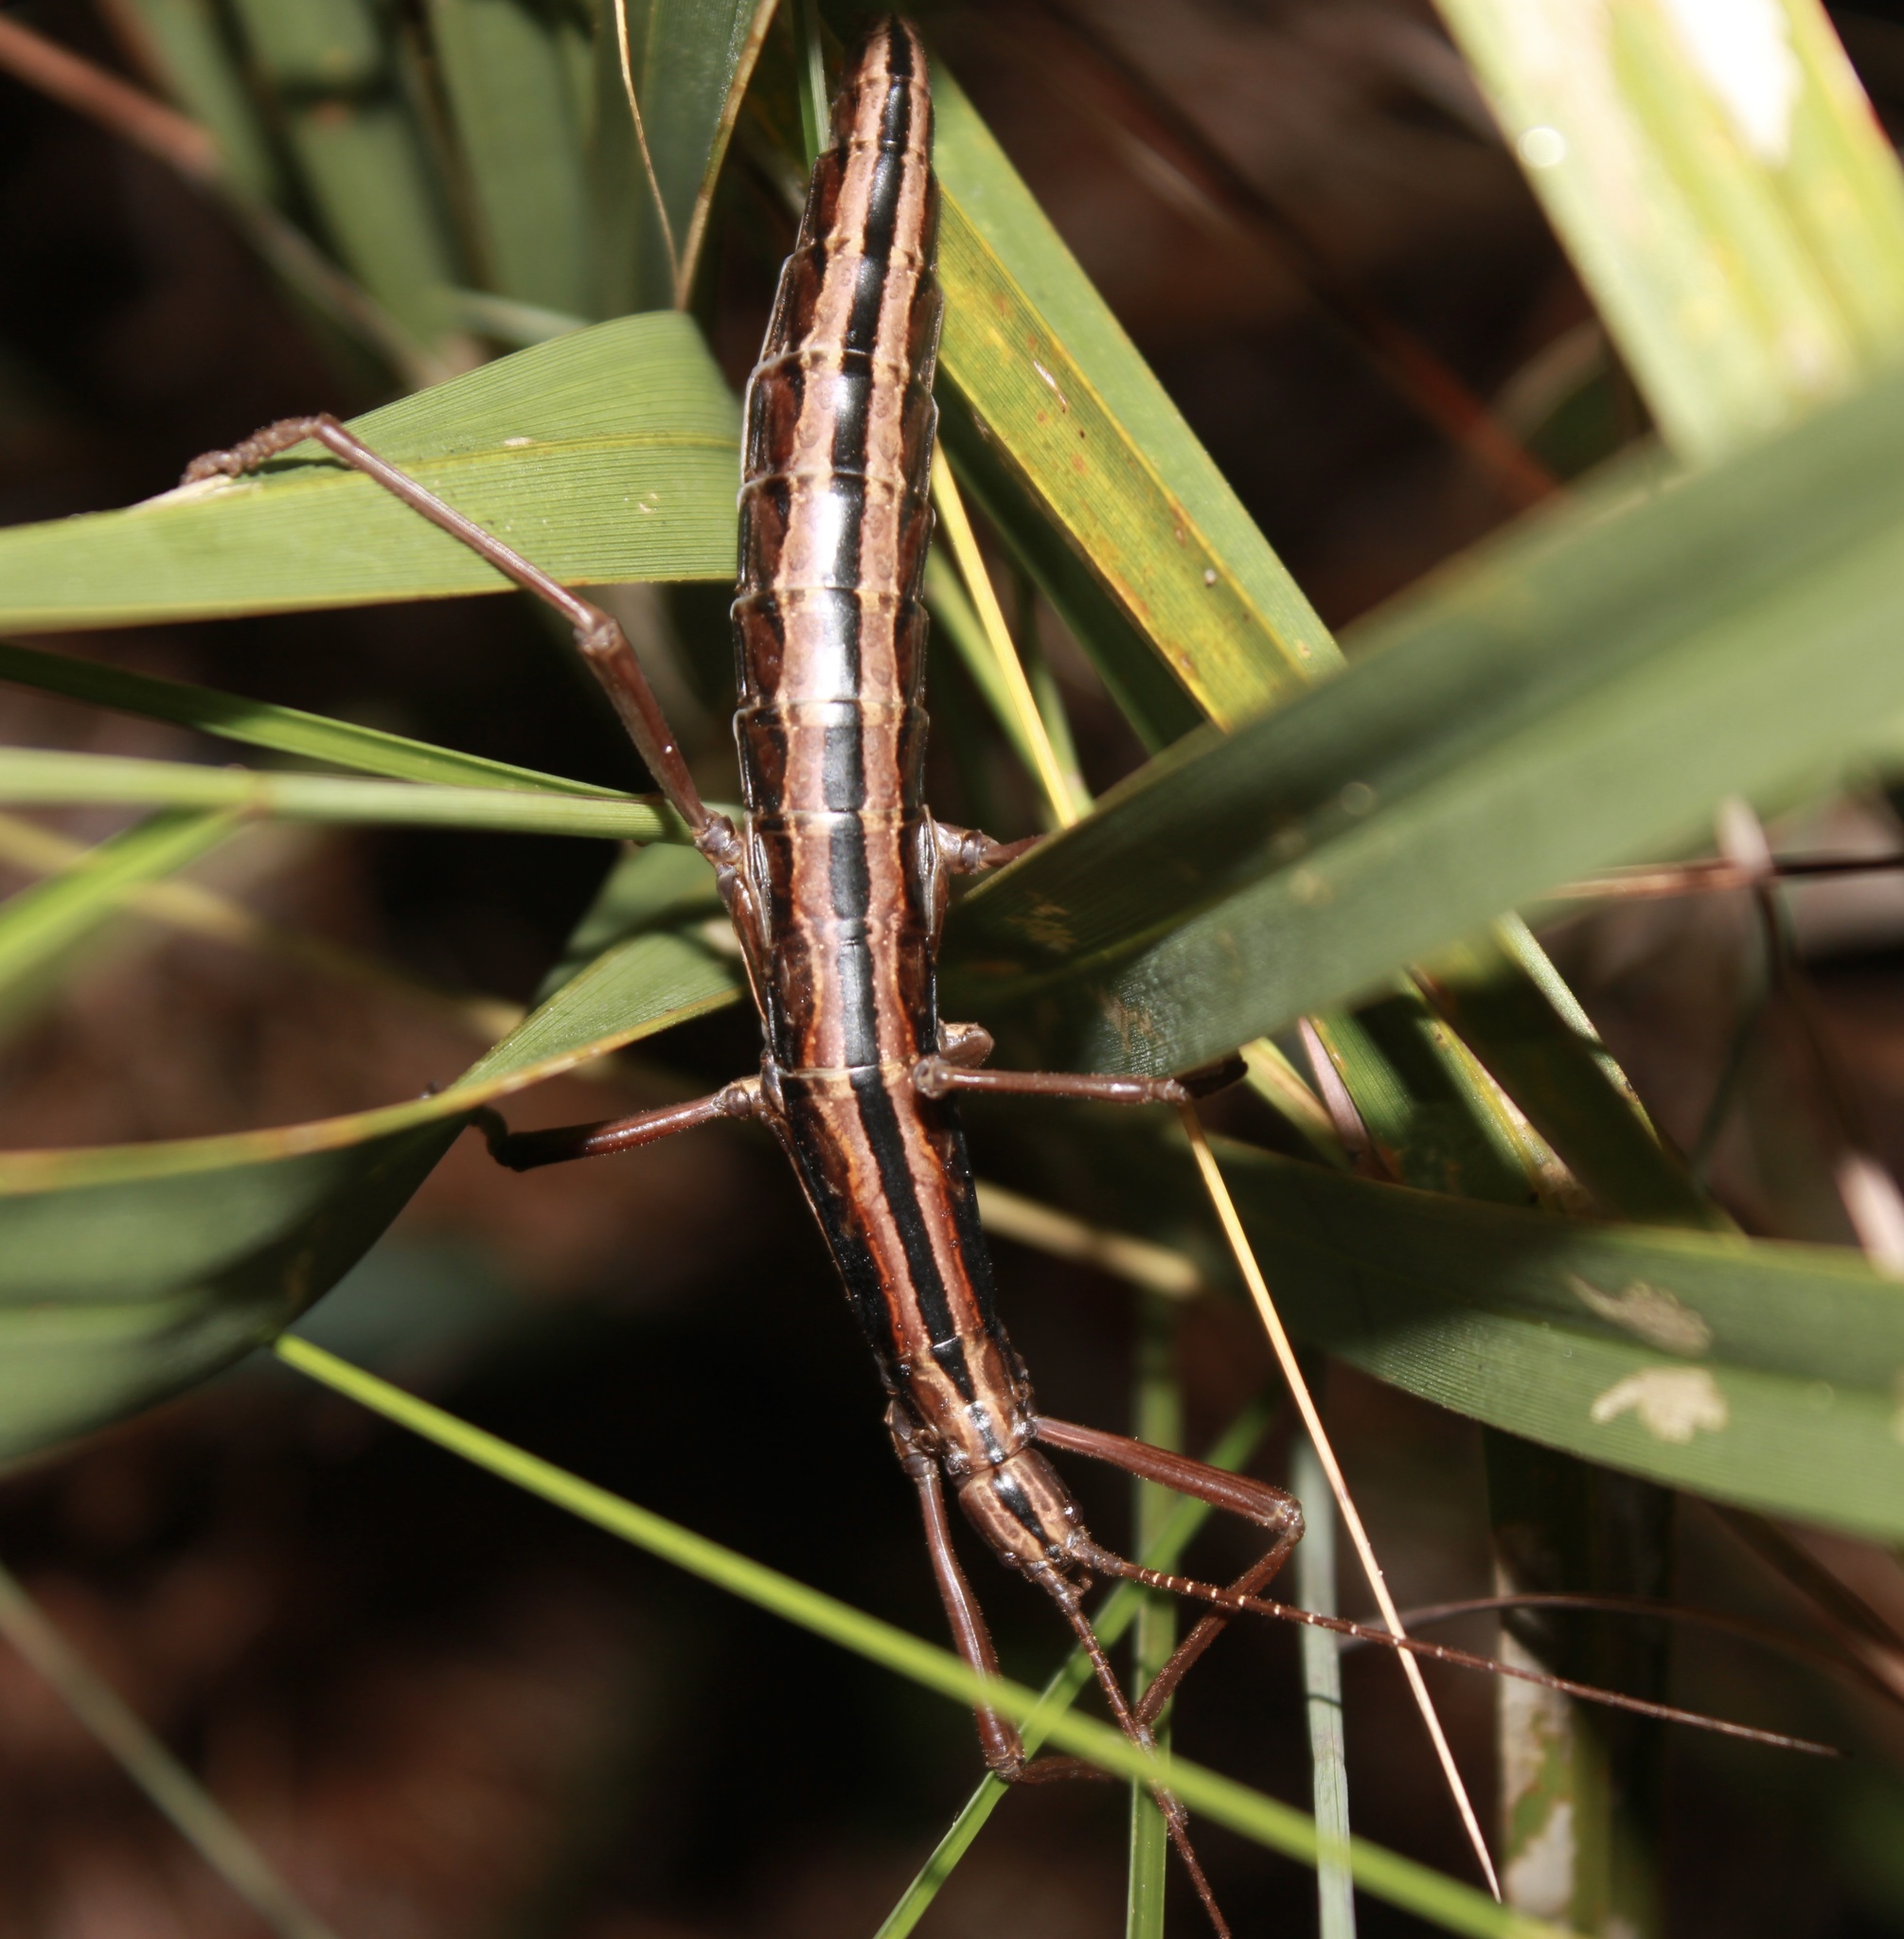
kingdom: Animalia
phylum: Arthropoda
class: Insecta
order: Phasmida
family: Pseudophasmatidae
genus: Anisomorpha
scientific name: Anisomorpha buprestoides
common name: Florida stick insect
